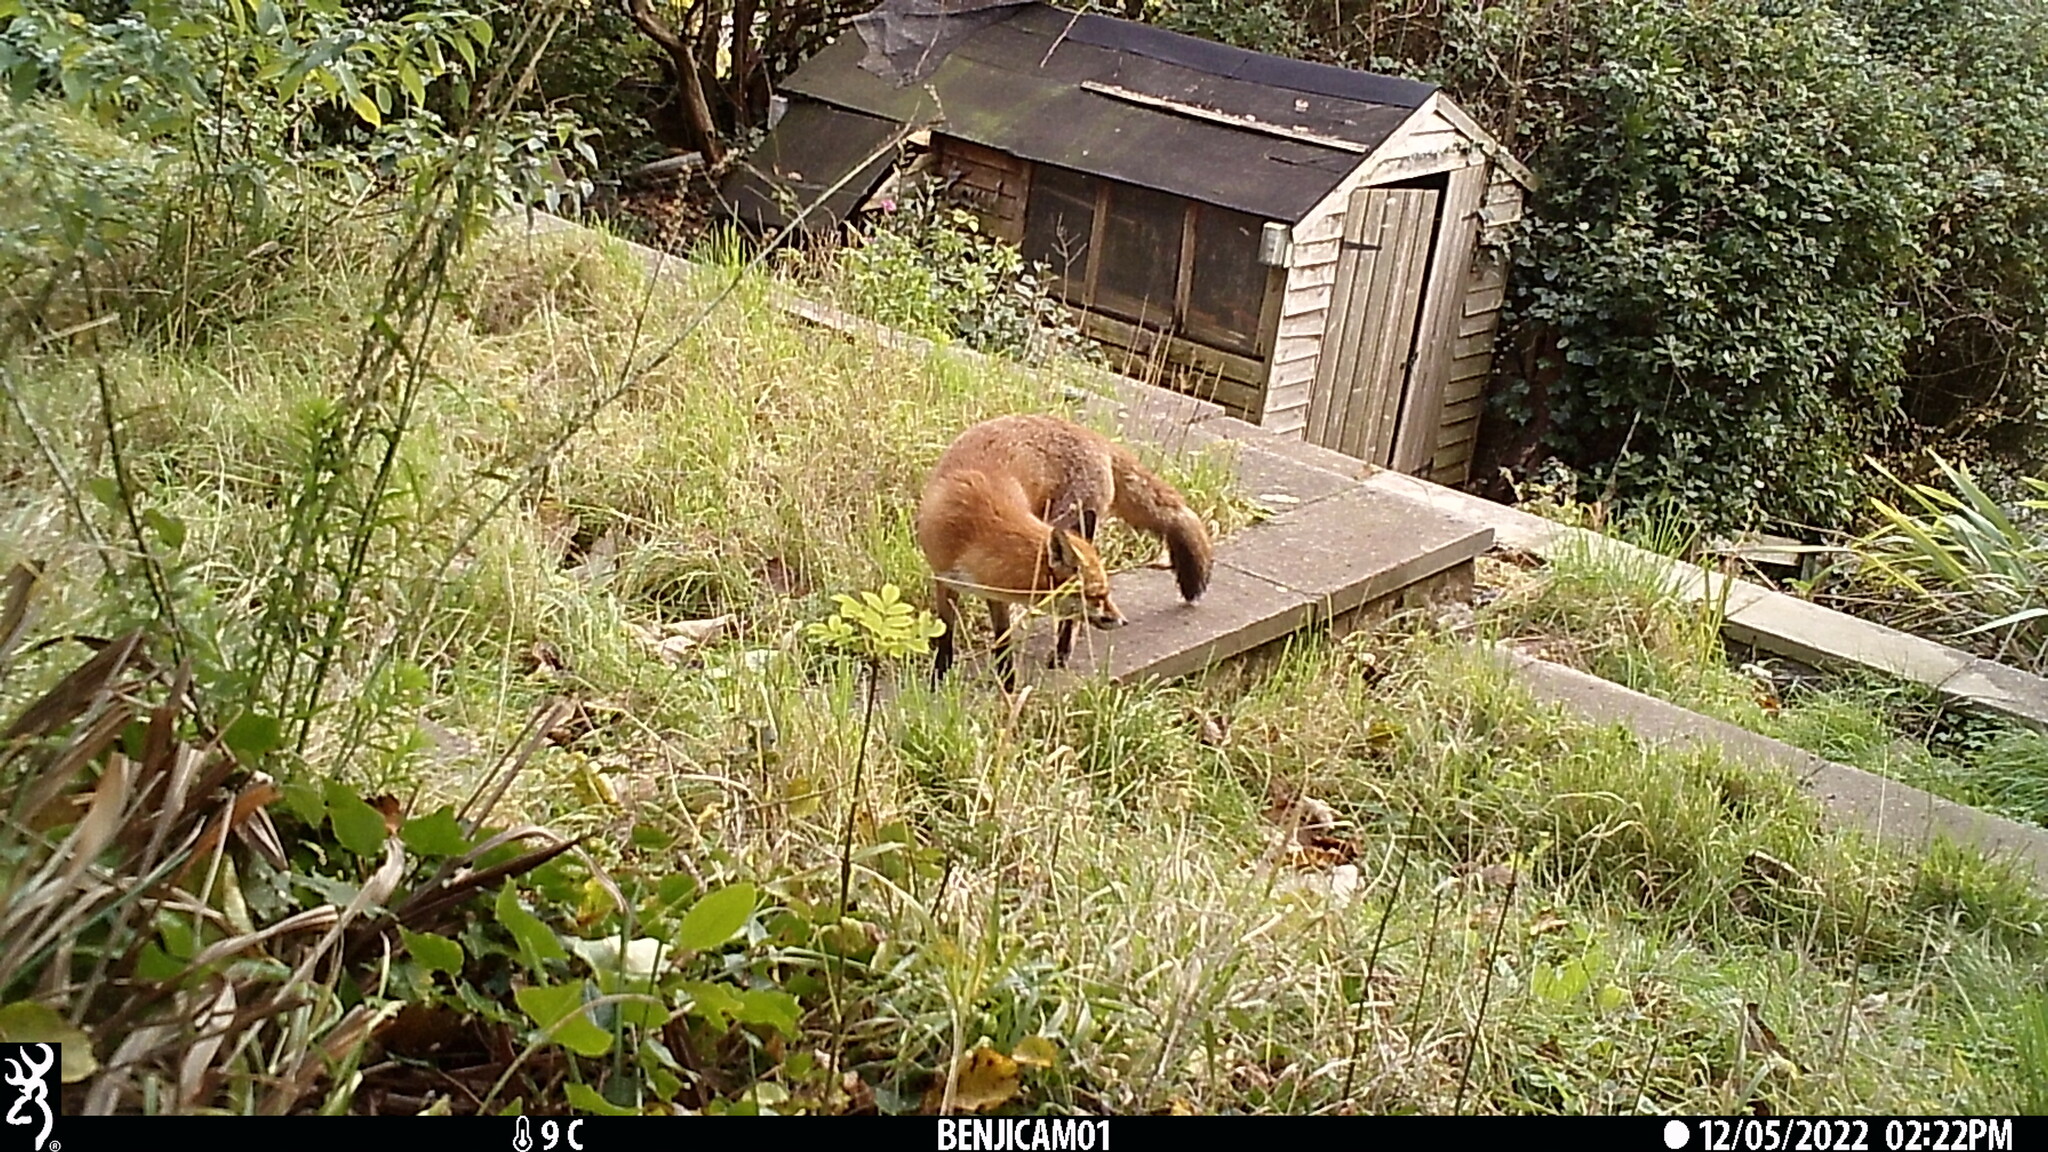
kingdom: Animalia
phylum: Chordata
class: Mammalia
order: Carnivora
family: Canidae
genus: Vulpes
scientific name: Vulpes vulpes
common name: Red fox
